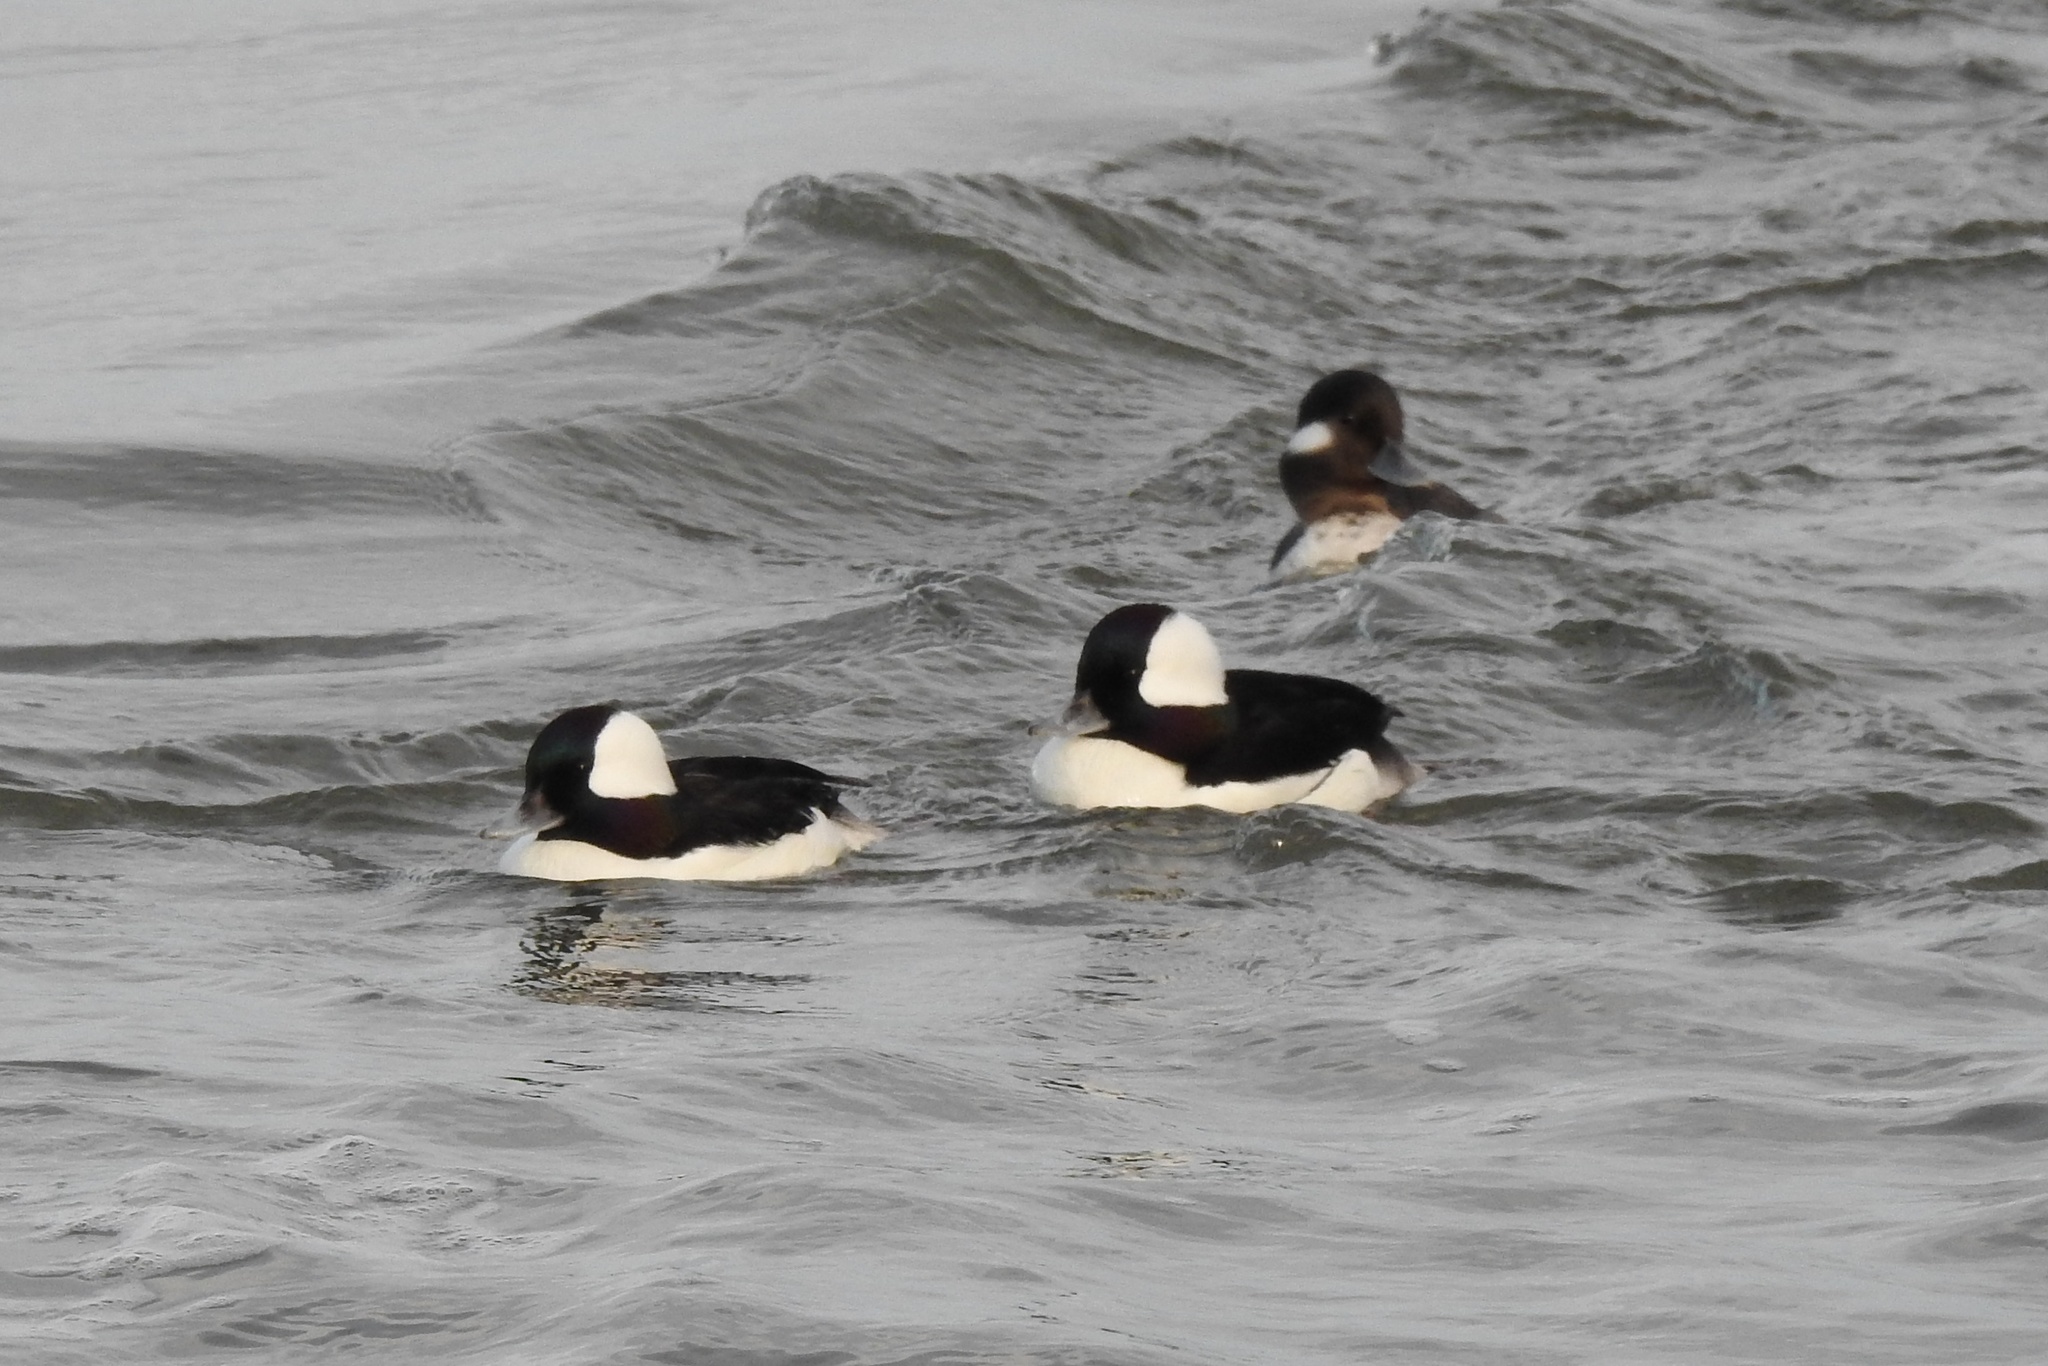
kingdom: Animalia
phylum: Chordata
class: Aves
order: Anseriformes
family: Anatidae
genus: Bucephala
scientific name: Bucephala albeola
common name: Bufflehead
